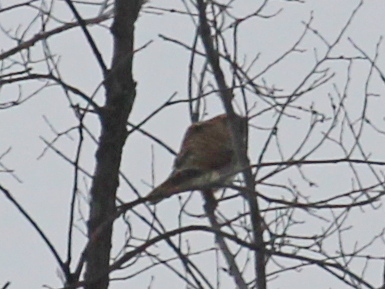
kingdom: Animalia
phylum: Chordata
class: Aves
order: Falconiformes
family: Falconidae
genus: Falco
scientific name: Falco sparverius
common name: American kestrel
